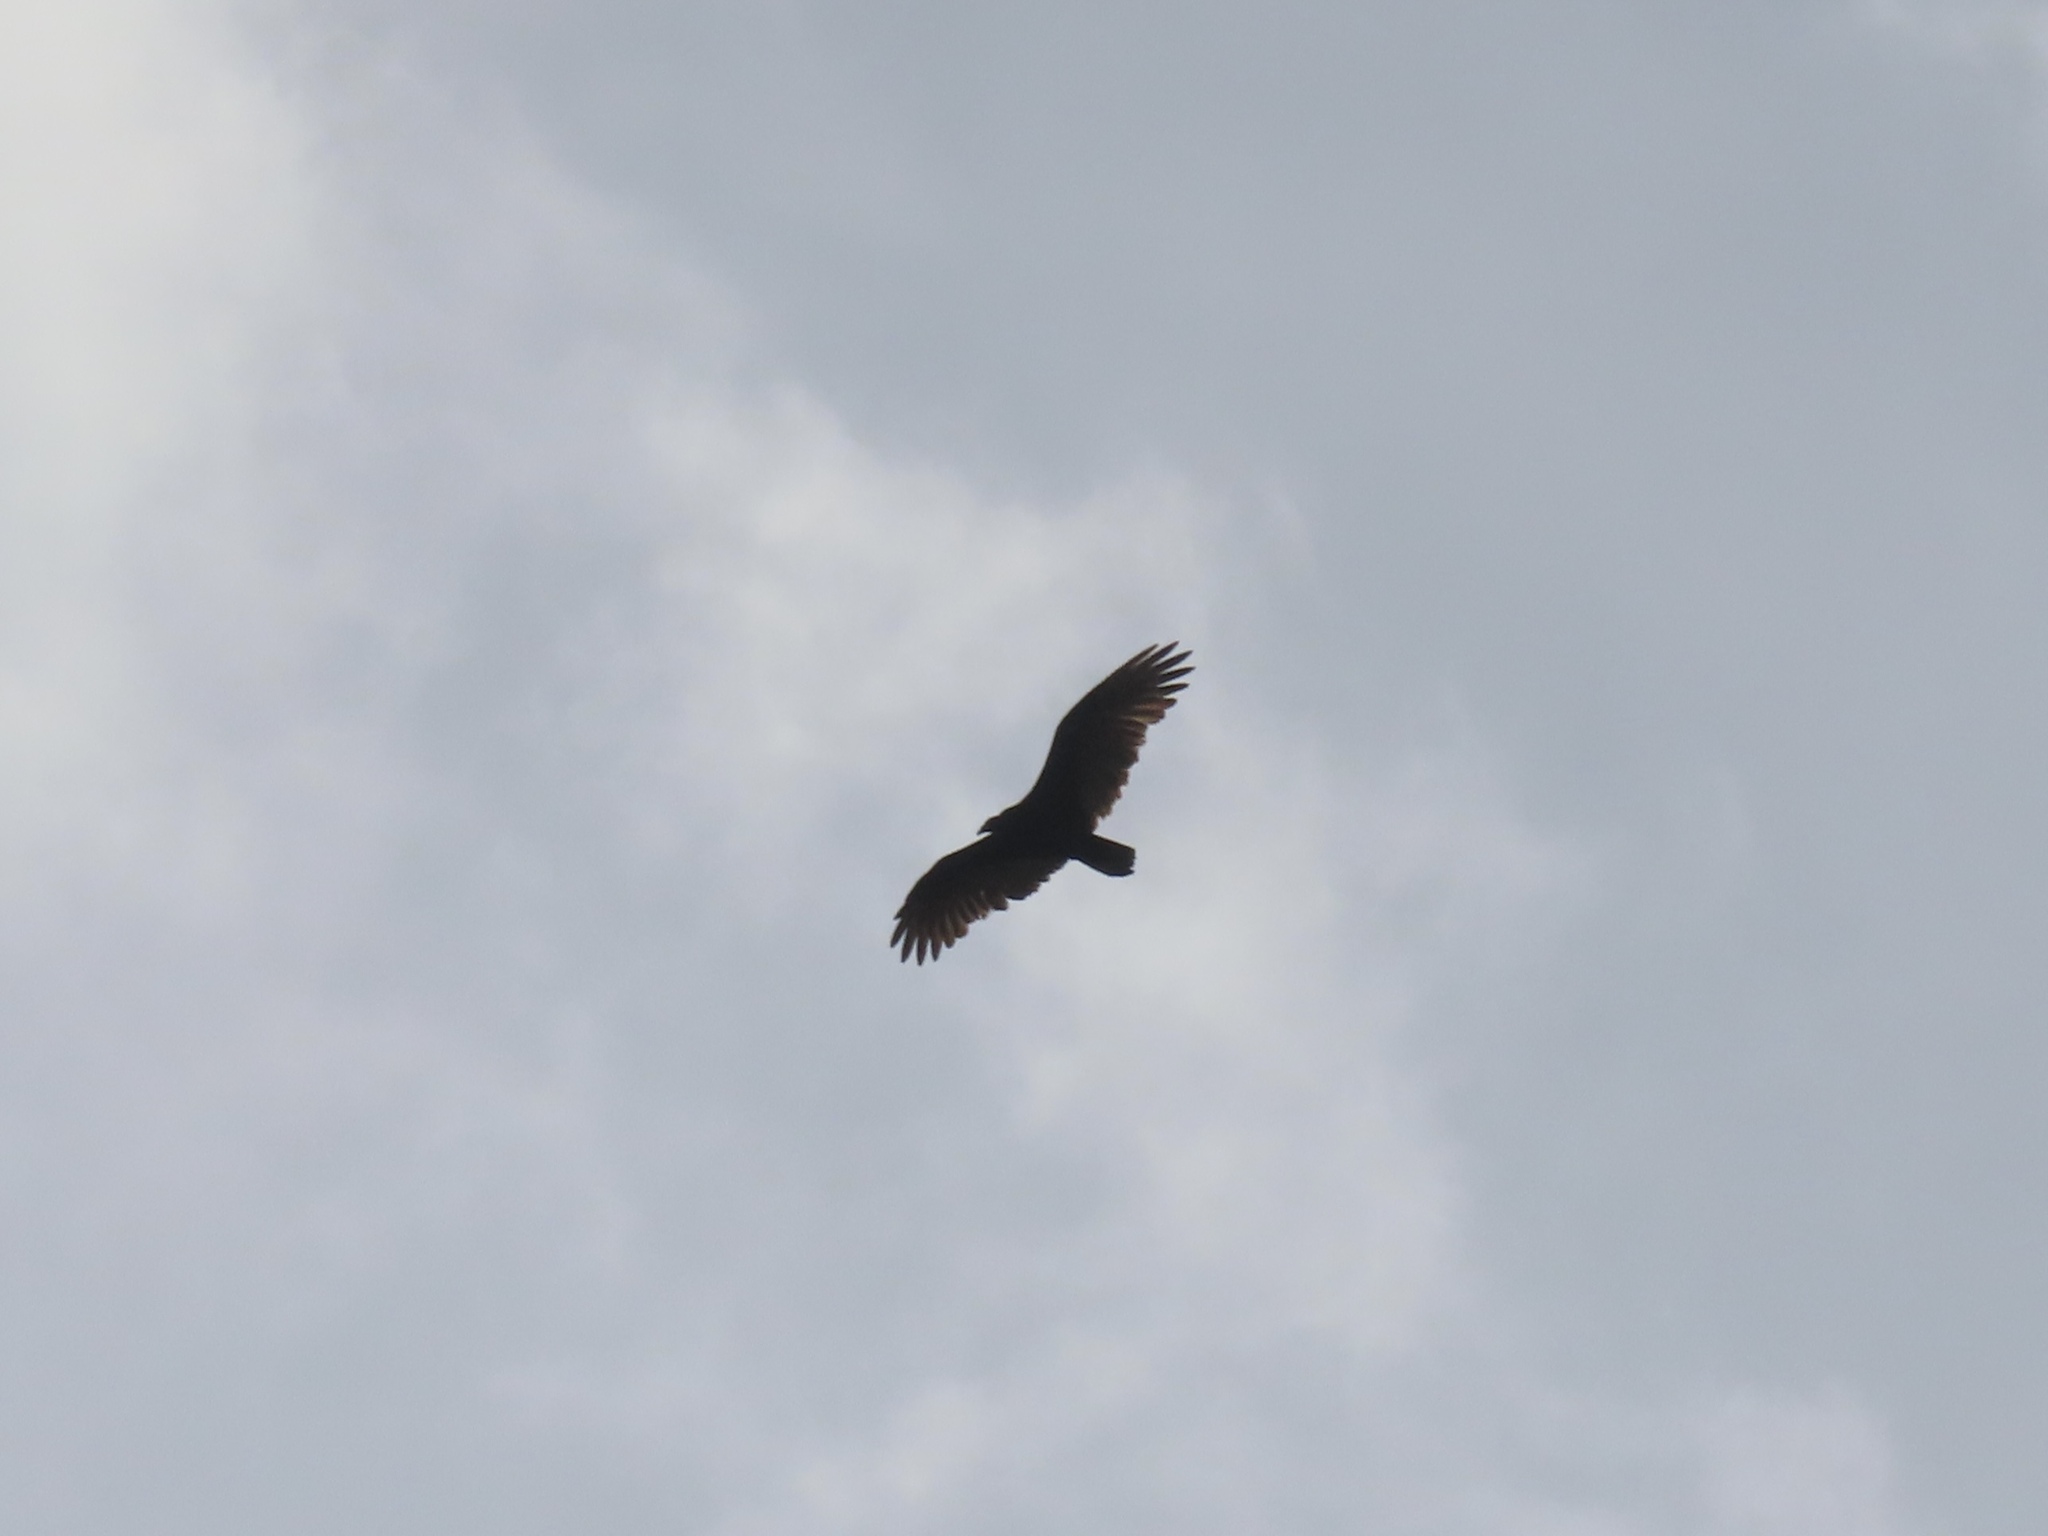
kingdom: Animalia
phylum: Chordata
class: Aves
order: Accipitriformes
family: Cathartidae
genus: Cathartes
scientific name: Cathartes aura
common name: Turkey vulture
